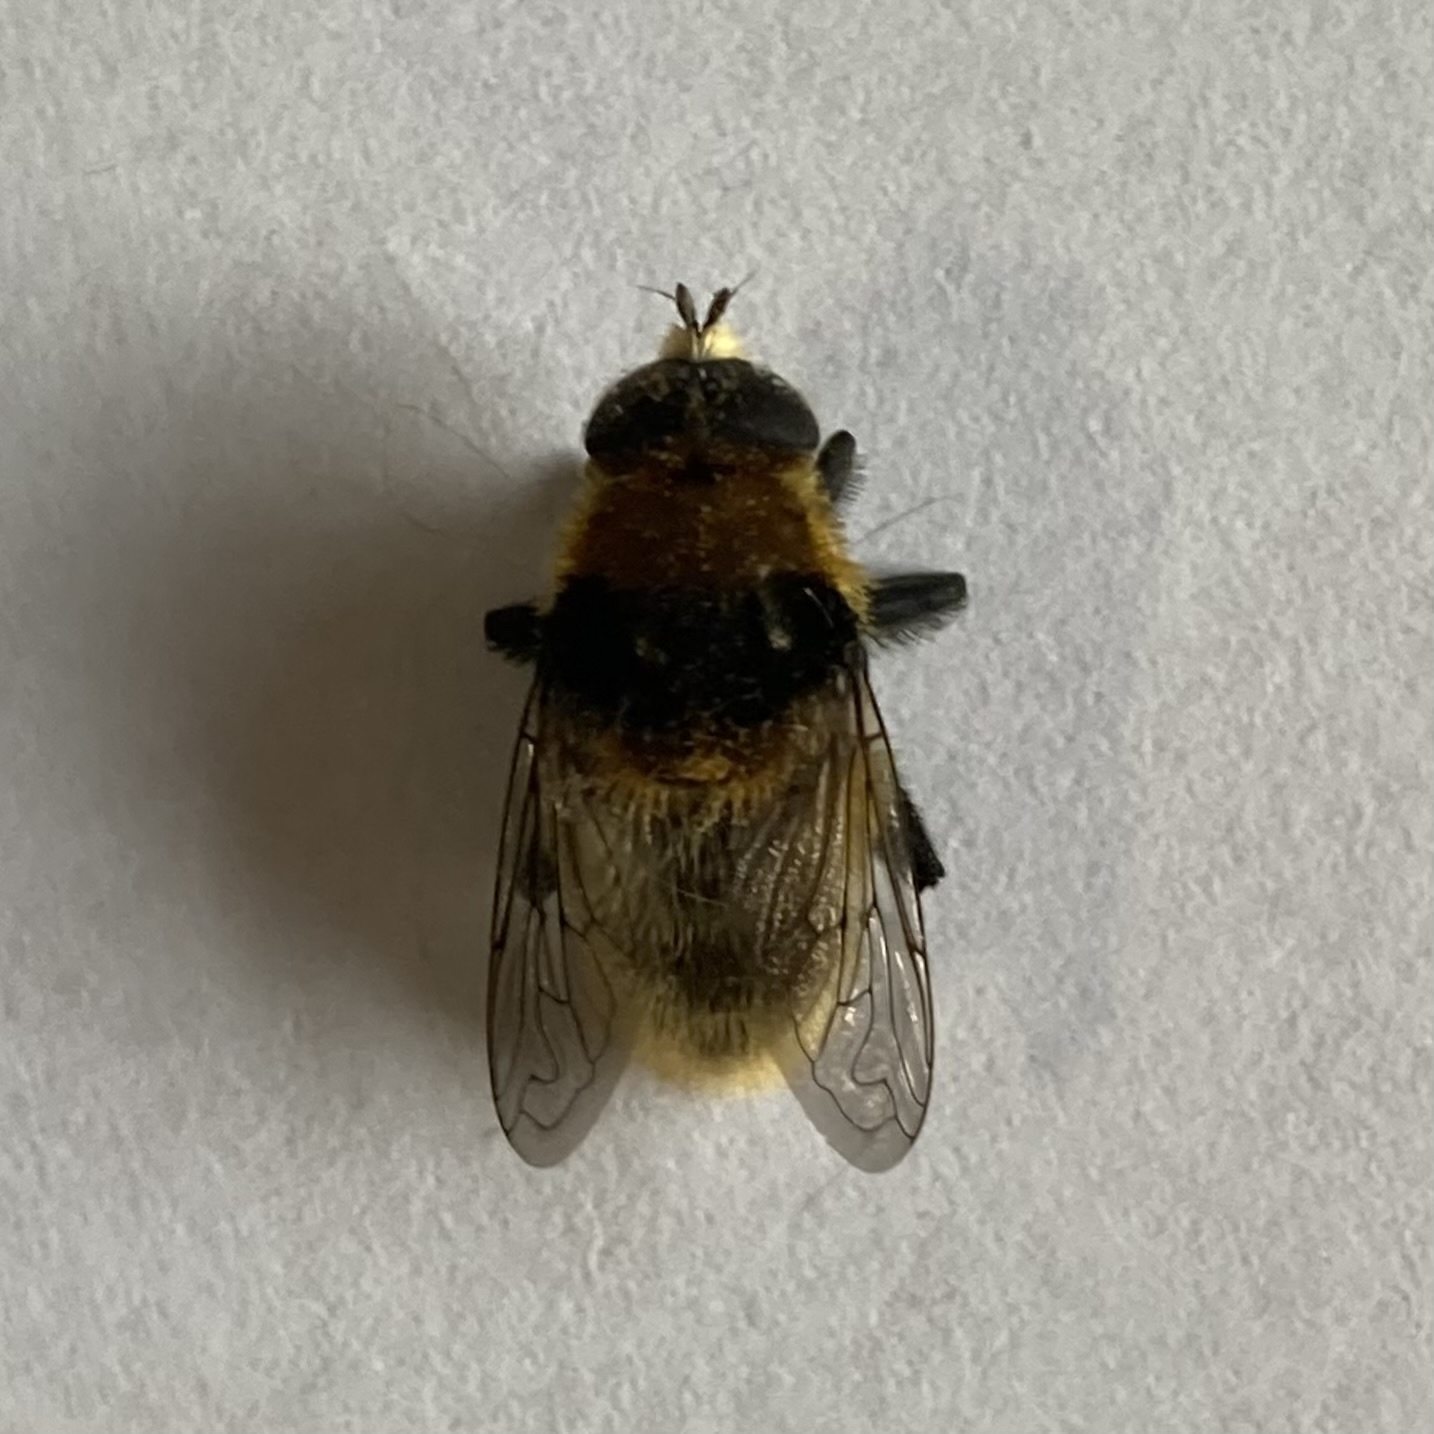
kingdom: Animalia
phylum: Arthropoda
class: Insecta
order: Diptera
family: Syrphidae
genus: Merodon
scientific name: Merodon equestris
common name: Greater bulb-fly
